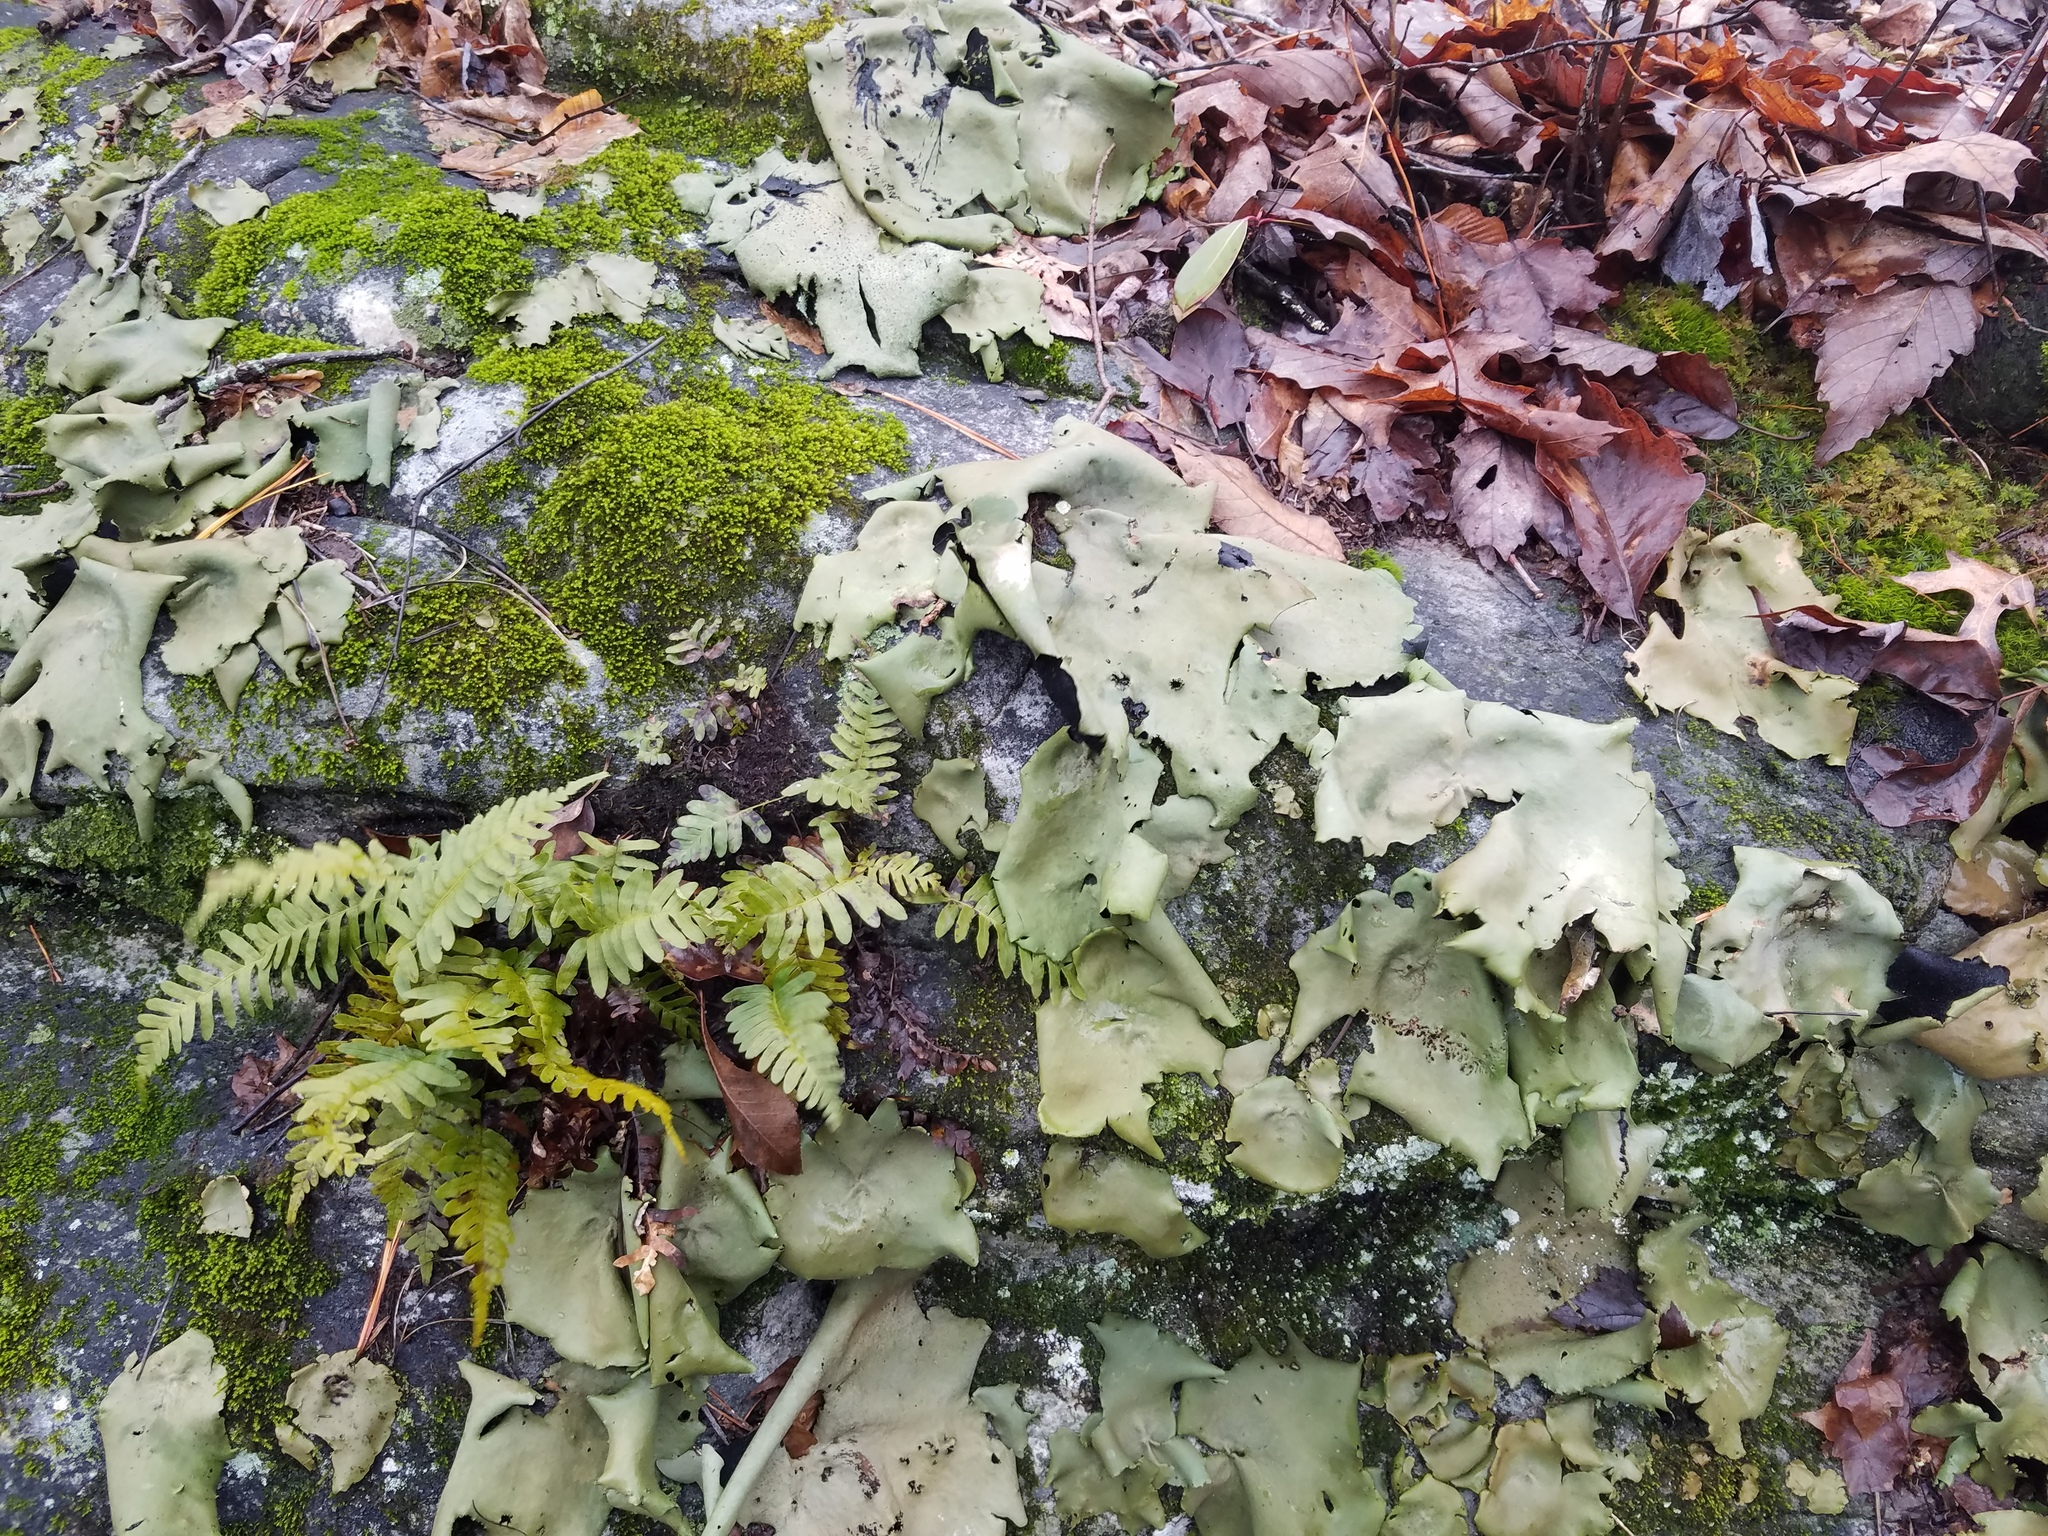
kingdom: Fungi
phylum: Ascomycota
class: Lecanoromycetes
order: Umbilicariales
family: Umbilicariaceae
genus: Umbilicaria
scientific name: Umbilicaria mammulata
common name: Smooth rock tripe
